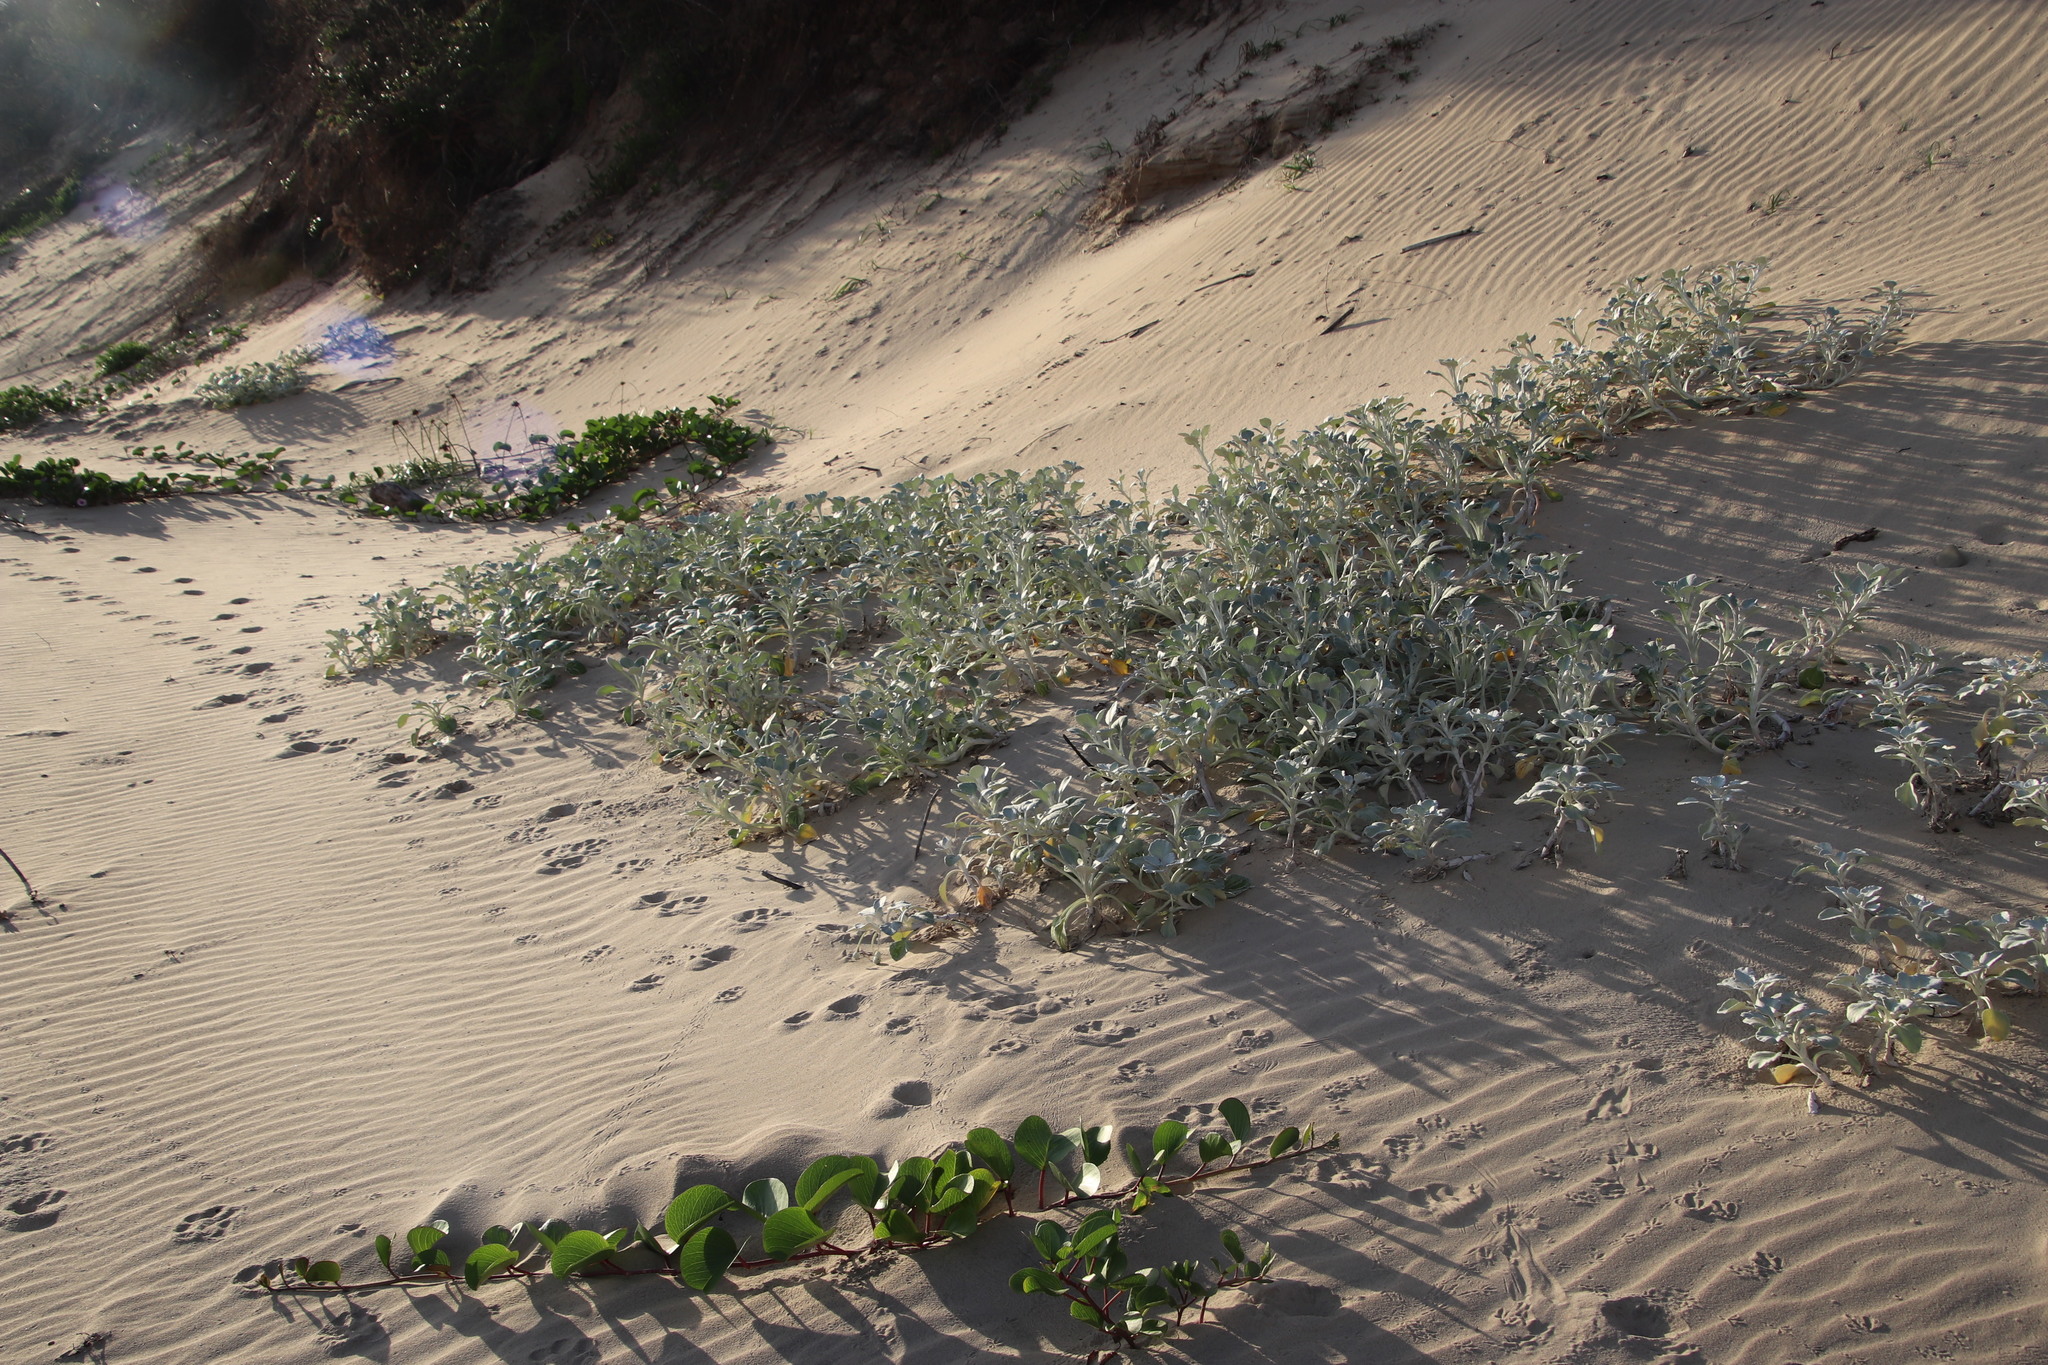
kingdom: Plantae
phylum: Tracheophyta
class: Magnoliopsida
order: Asterales
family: Asteraceae
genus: Arctotheca
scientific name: Arctotheca populifolia
